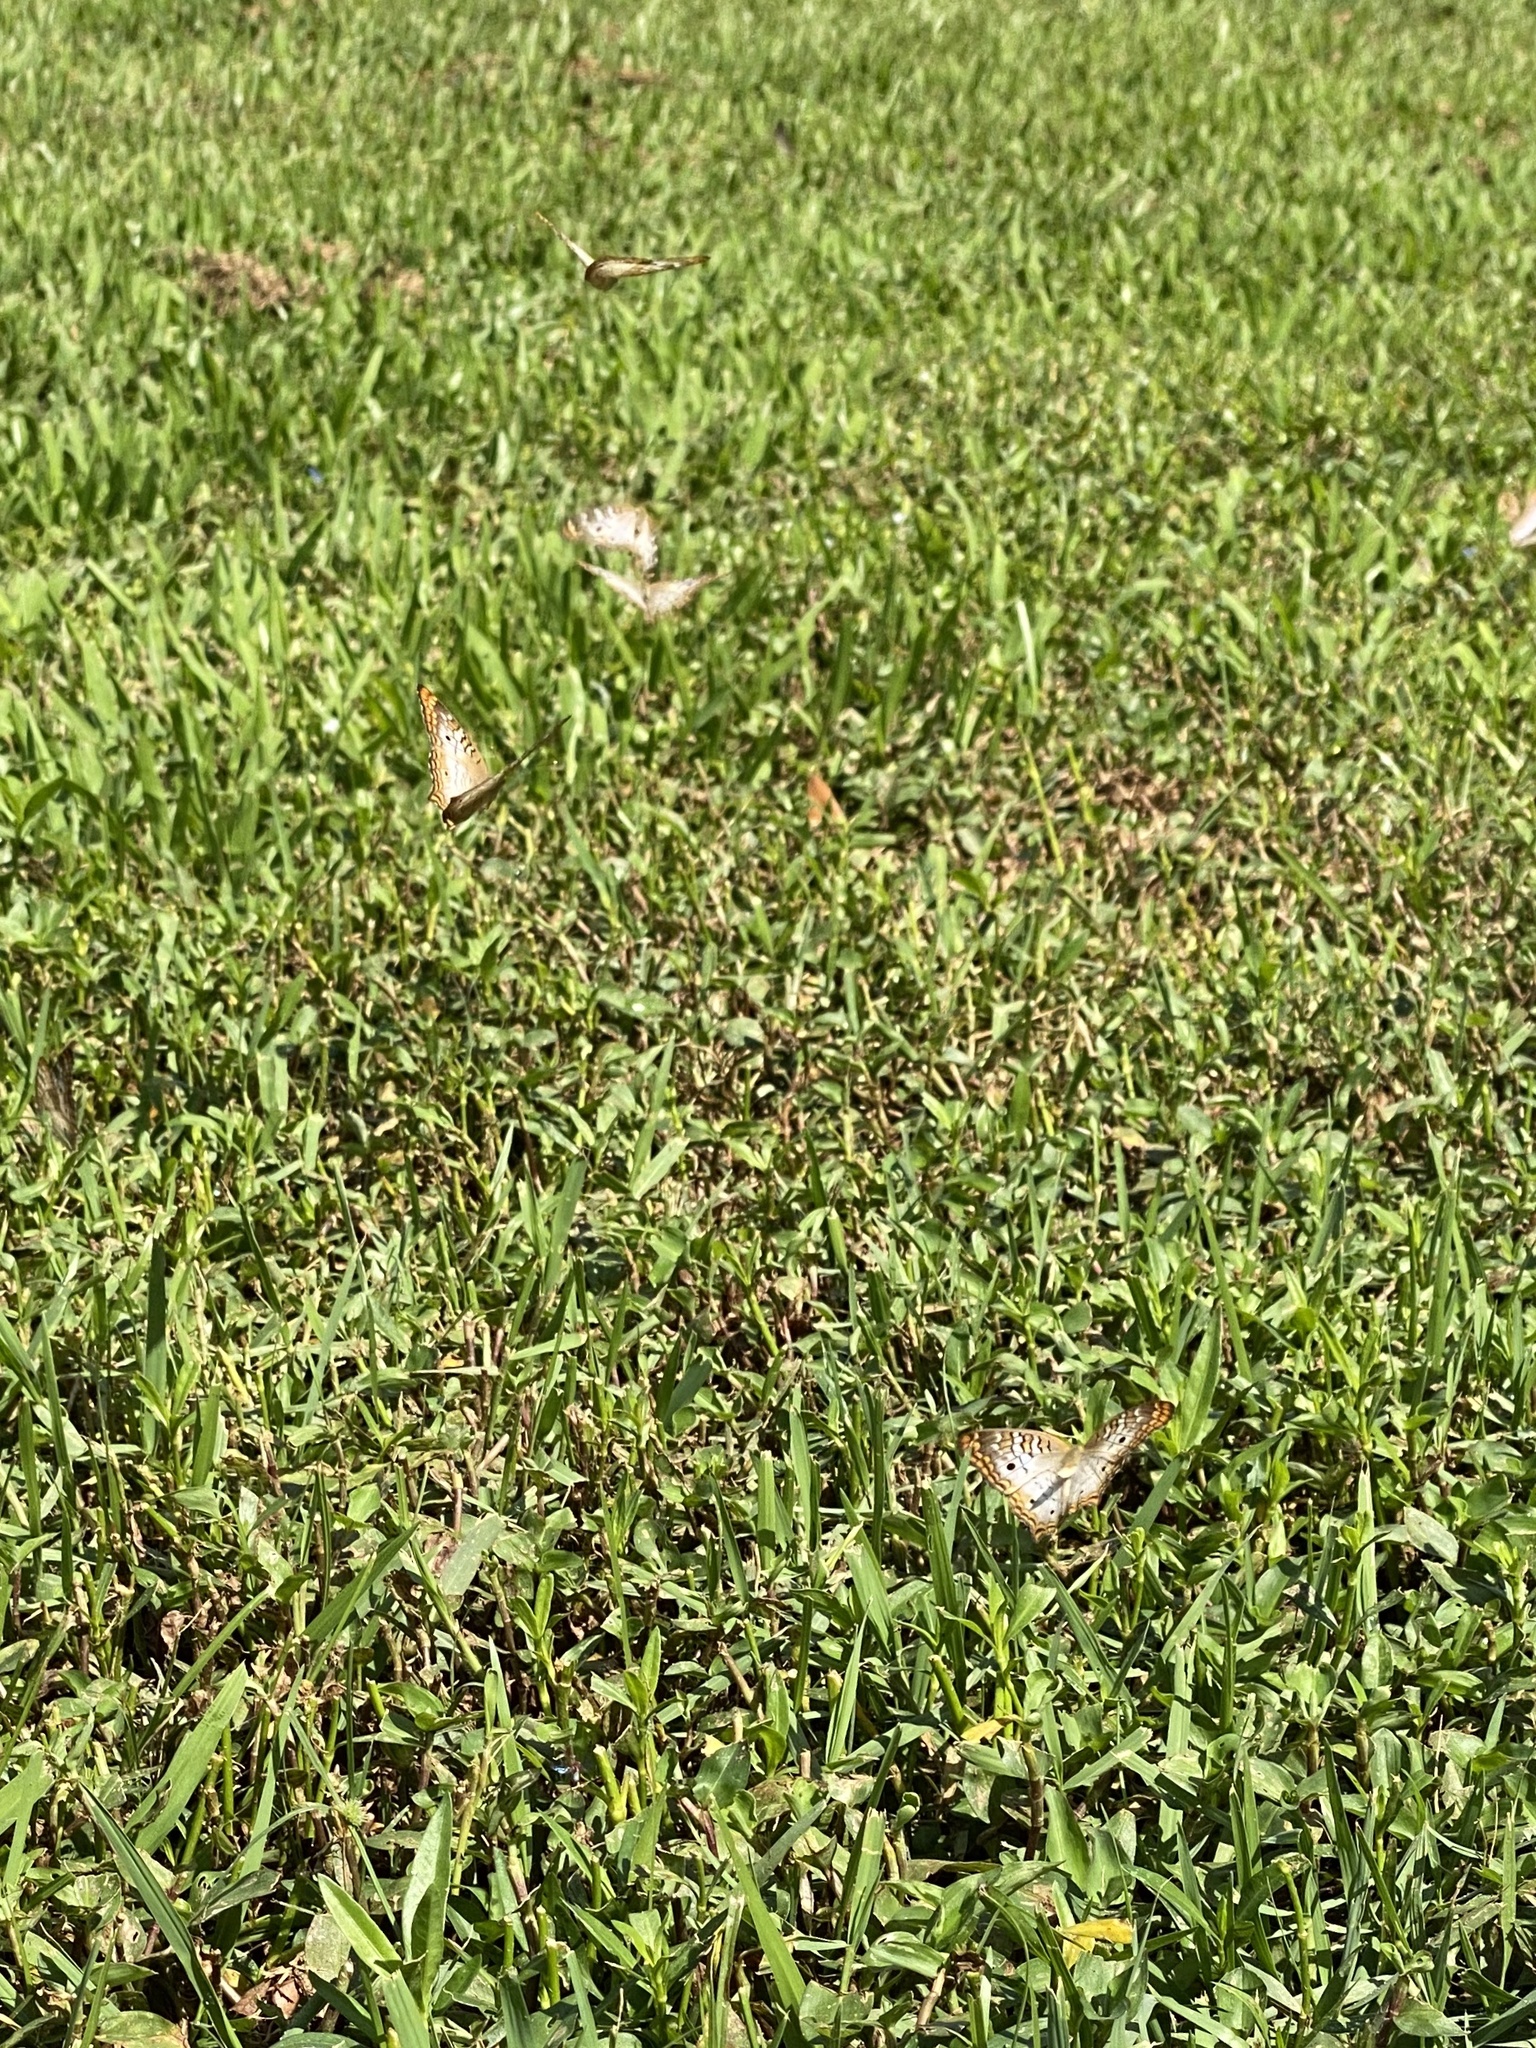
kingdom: Animalia
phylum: Arthropoda
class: Insecta
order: Lepidoptera
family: Nymphalidae
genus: Anartia
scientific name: Anartia jatrophae
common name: White peacock
